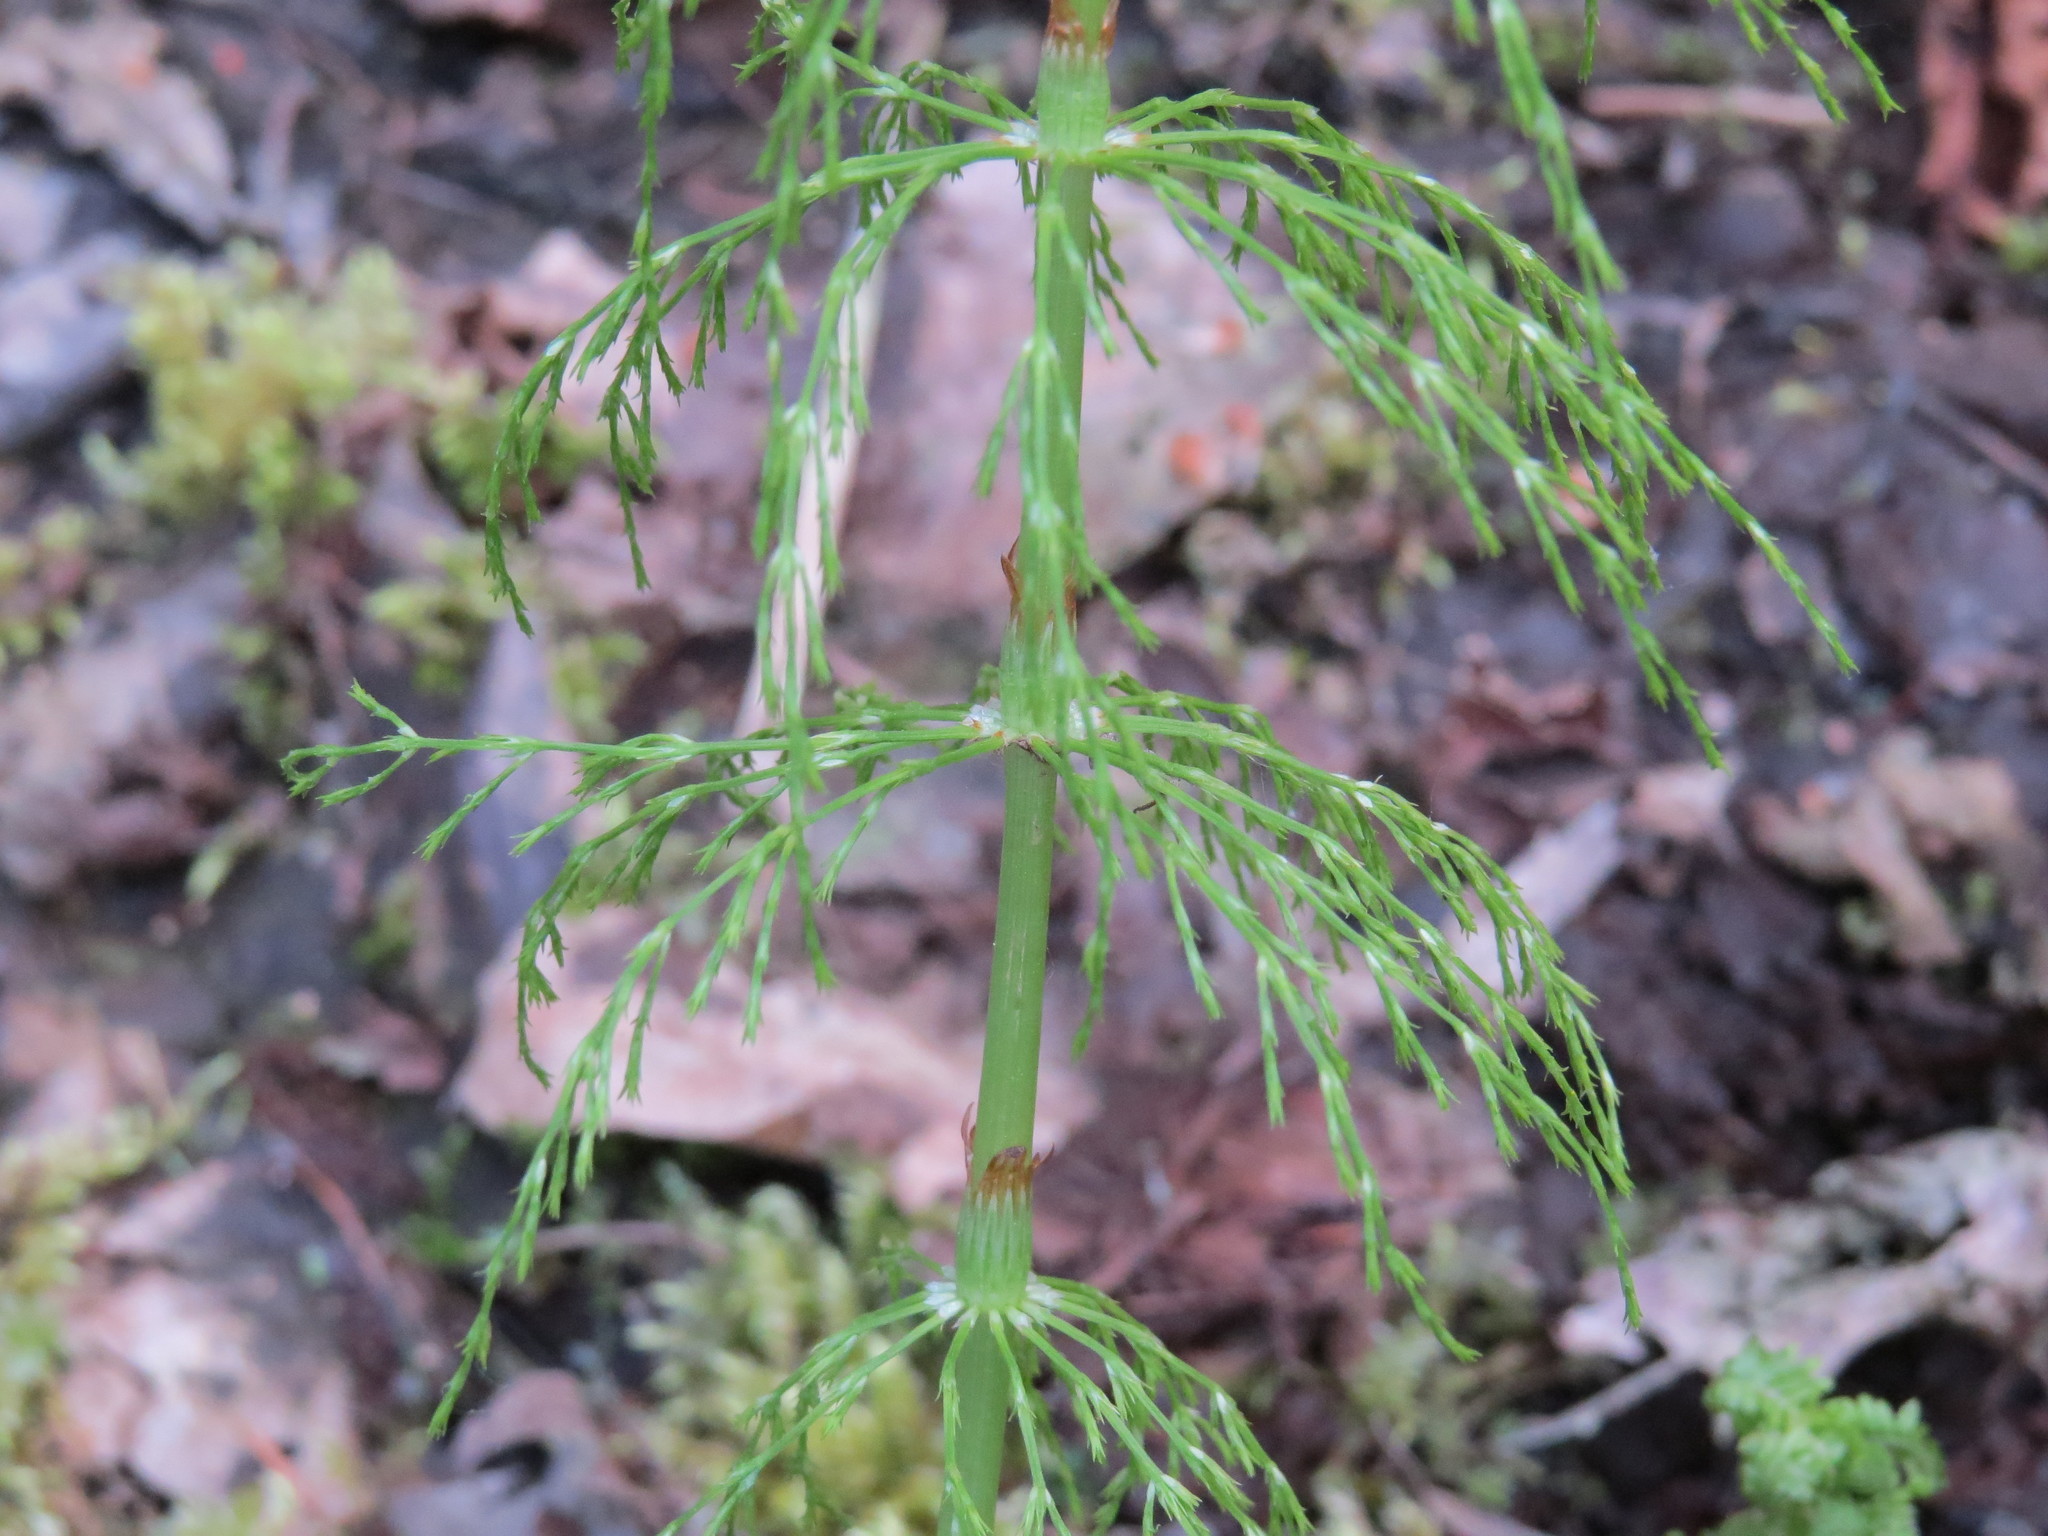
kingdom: Plantae
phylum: Tracheophyta
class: Polypodiopsida
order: Equisetales
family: Equisetaceae
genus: Equisetum
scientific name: Equisetum sylvaticum
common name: Wood horsetail
